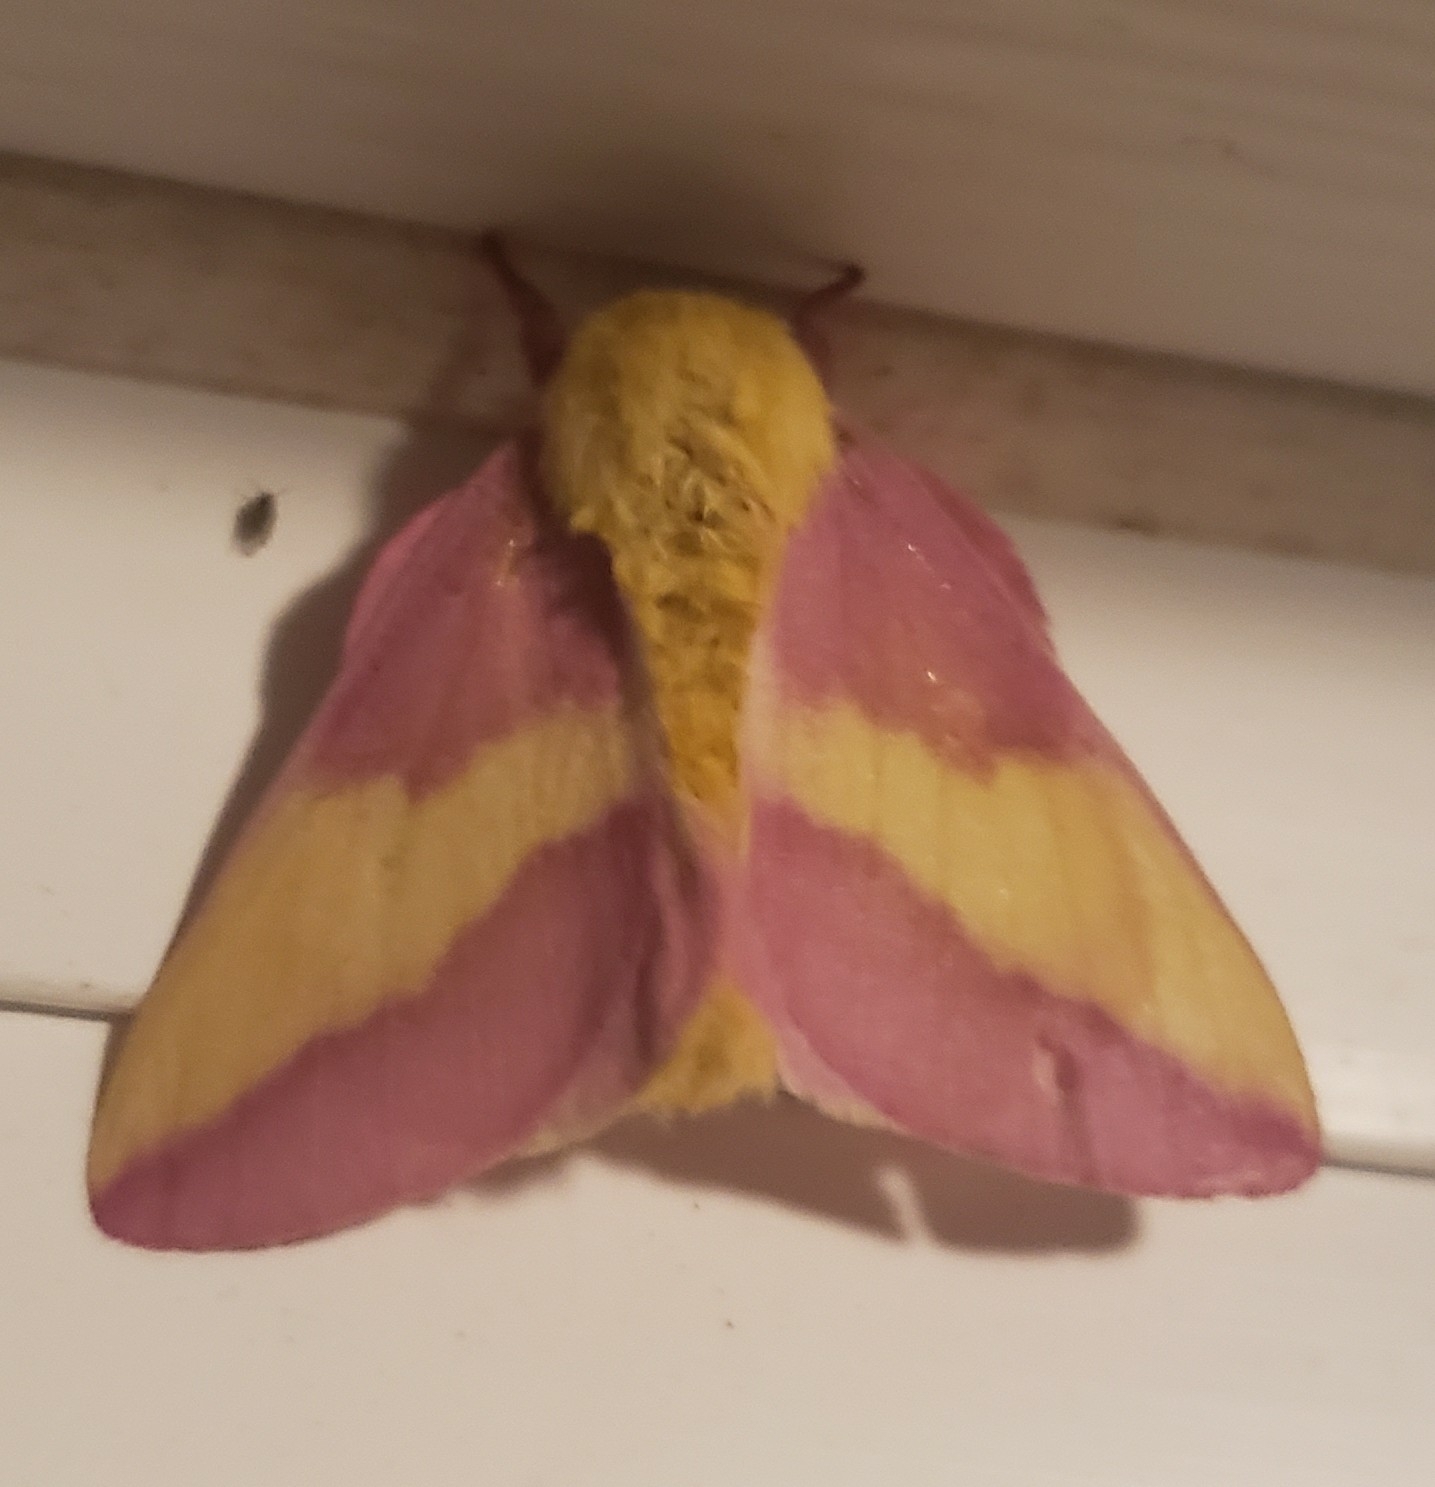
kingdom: Animalia
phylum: Arthropoda
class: Insecta
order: Lepidoptera
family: Saturniidae
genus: Dryocampa
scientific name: Dryocampa rubicunda
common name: Rosy maple moth
